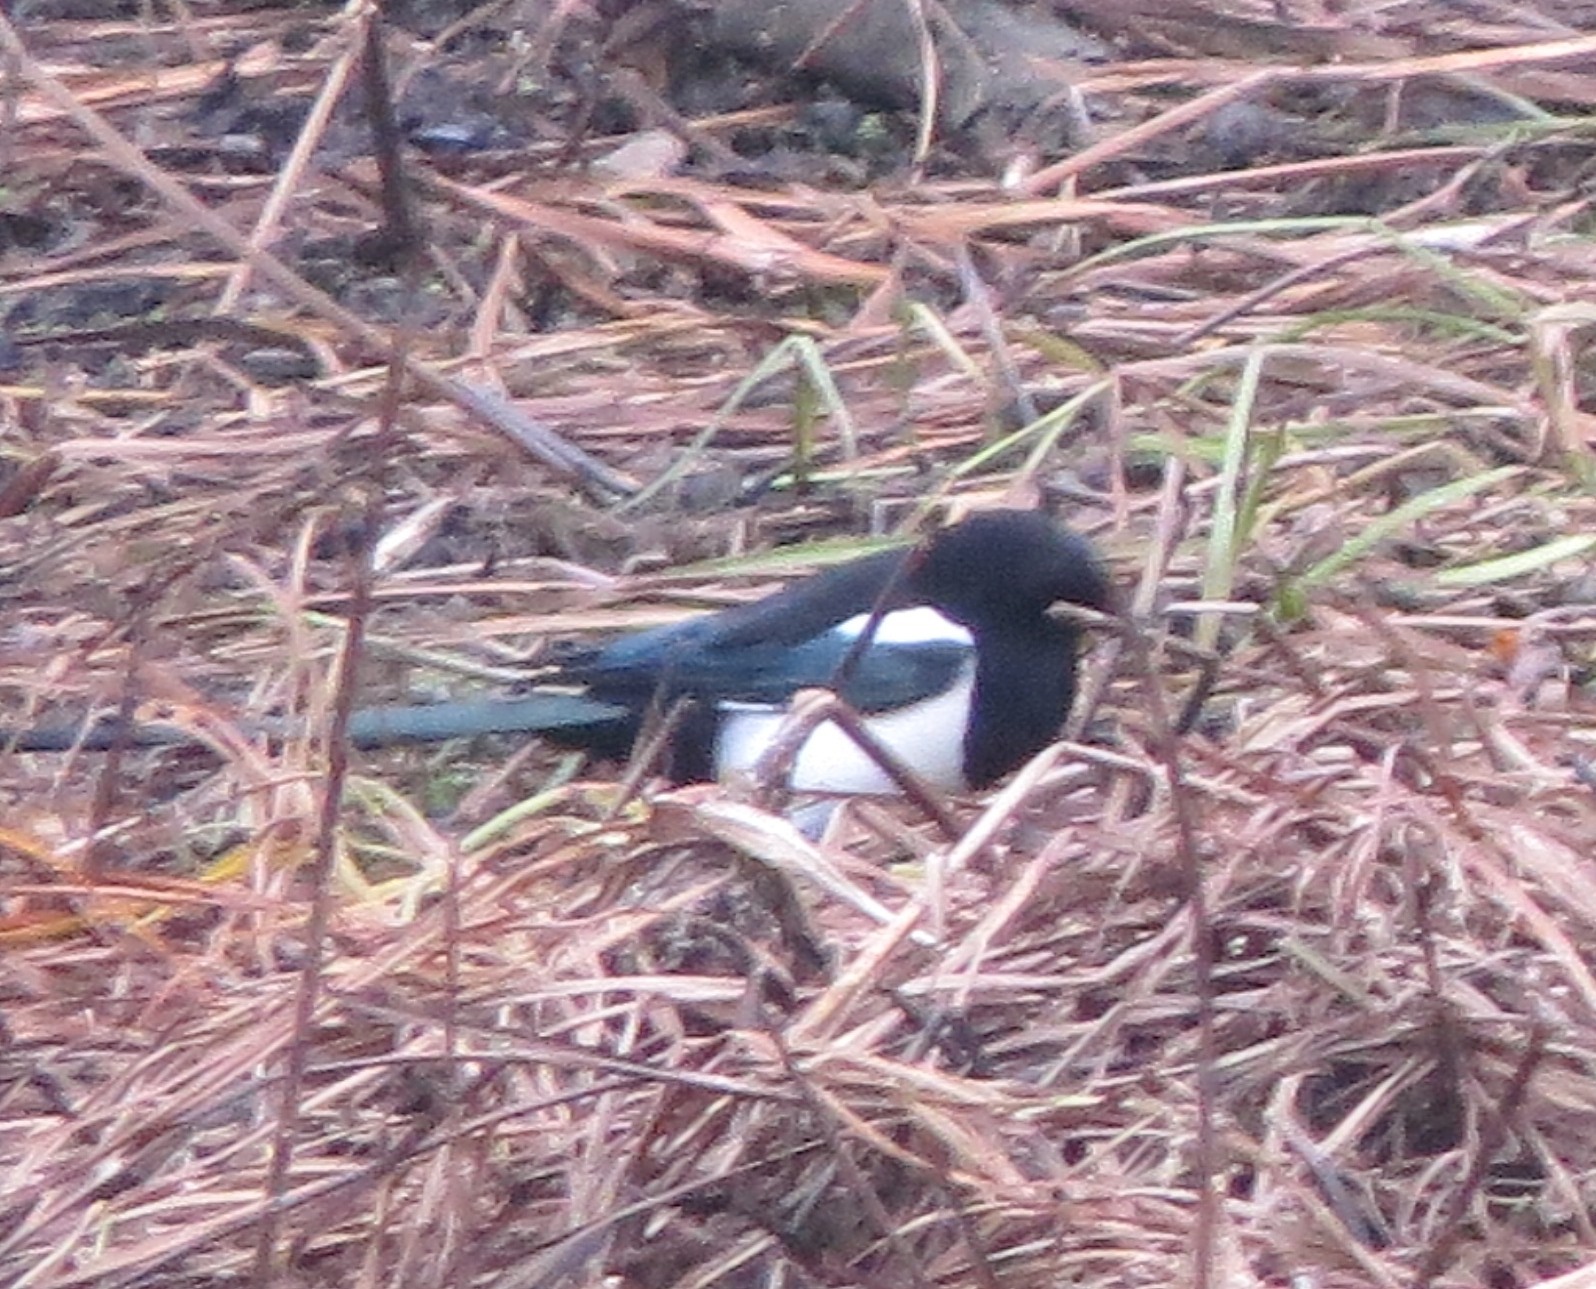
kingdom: Animalia
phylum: Chordata
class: Aves
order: Passeriformes
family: Corvidae
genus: Pica
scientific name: Pica pica
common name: Eurasian magpie
